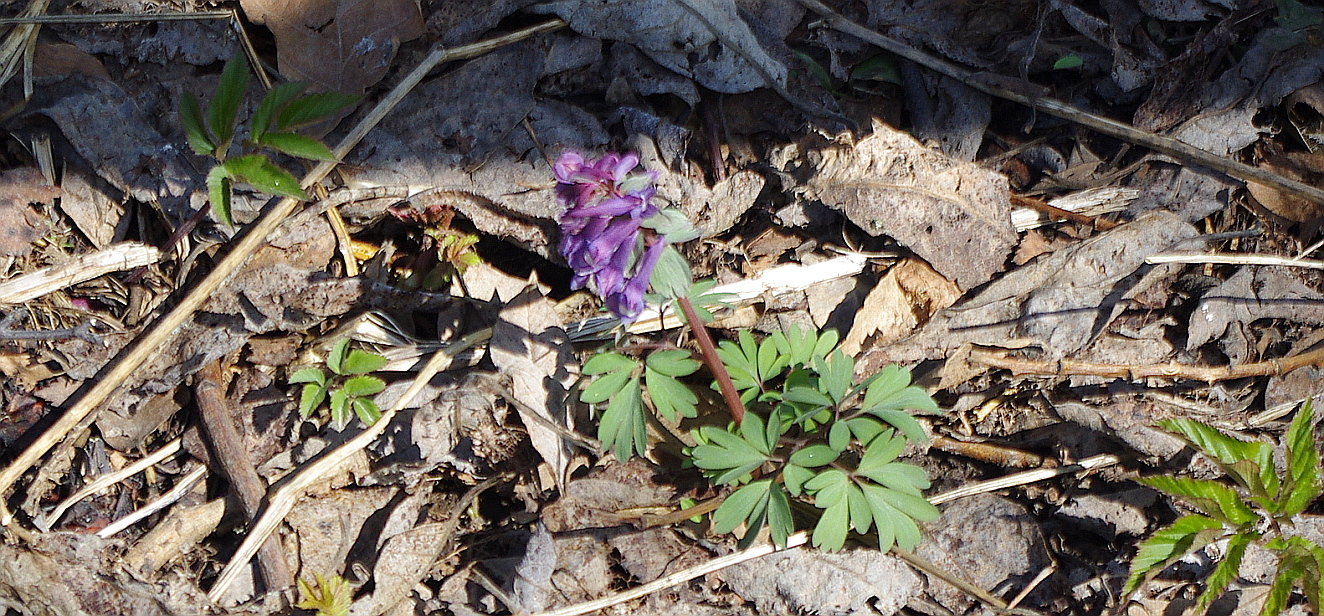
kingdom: Plantae
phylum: Tracheophyta
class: Magnoliopsida
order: Ranunculales
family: Papaveraceae
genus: Corydalis
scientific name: Corydalis solida
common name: Bird-in-a-bush
